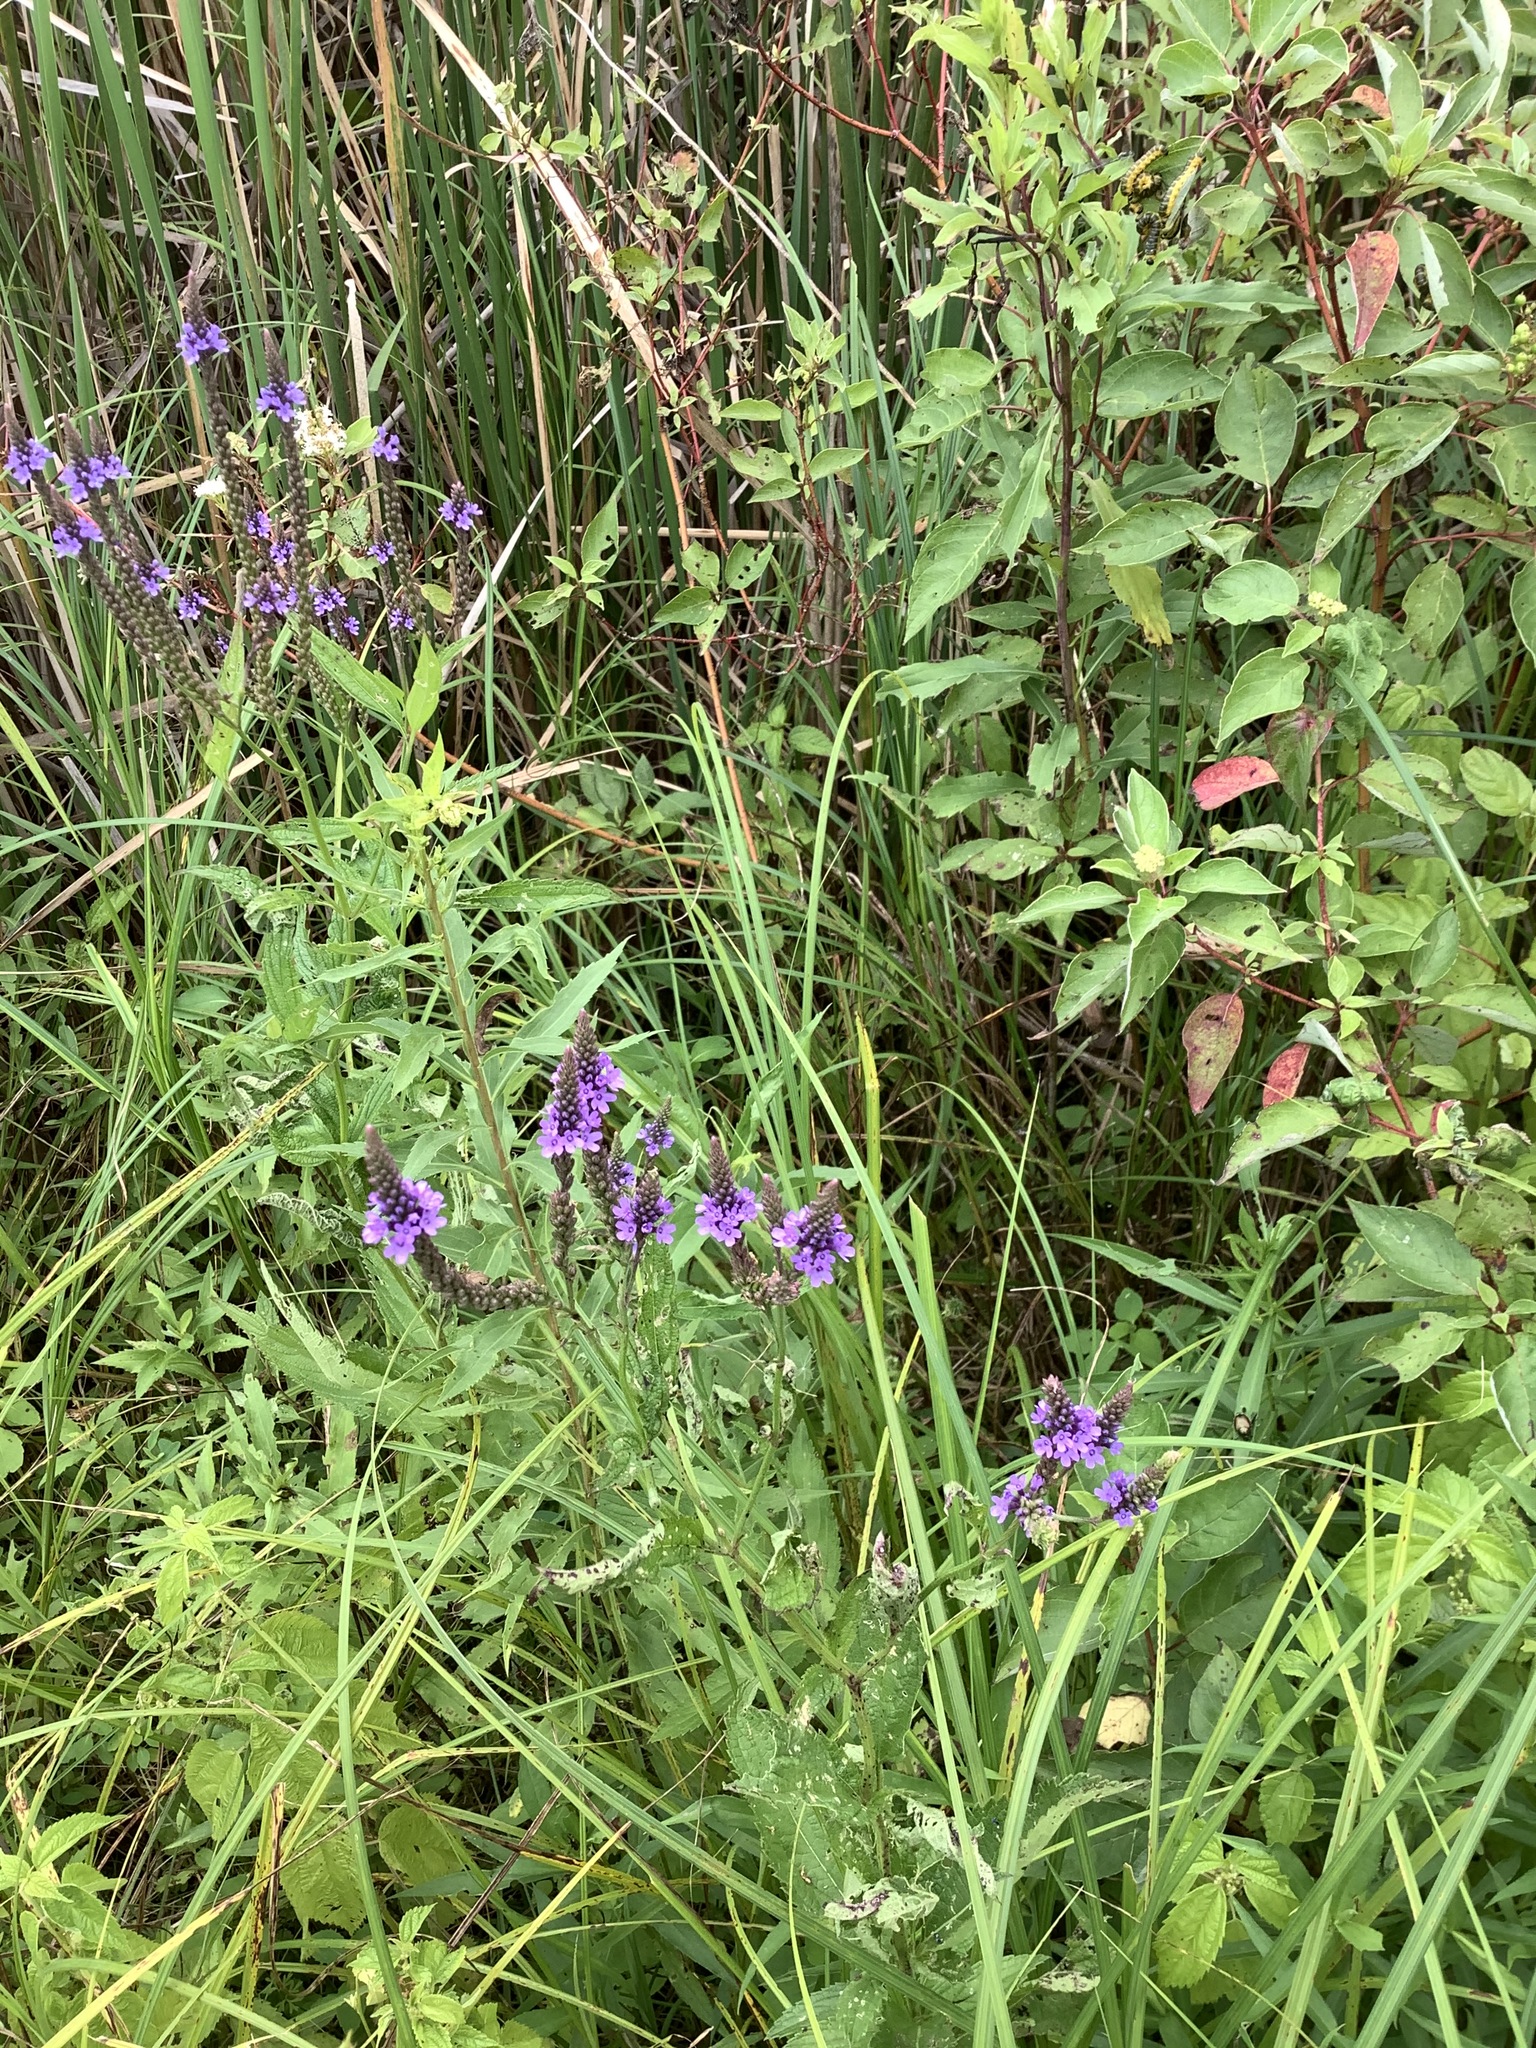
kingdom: Plantae
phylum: Tracheophyta
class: Magnoliopsida
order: Lamiales
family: Verbenaceae
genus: Verbena
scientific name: Verbena hastata
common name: American blue vervain
